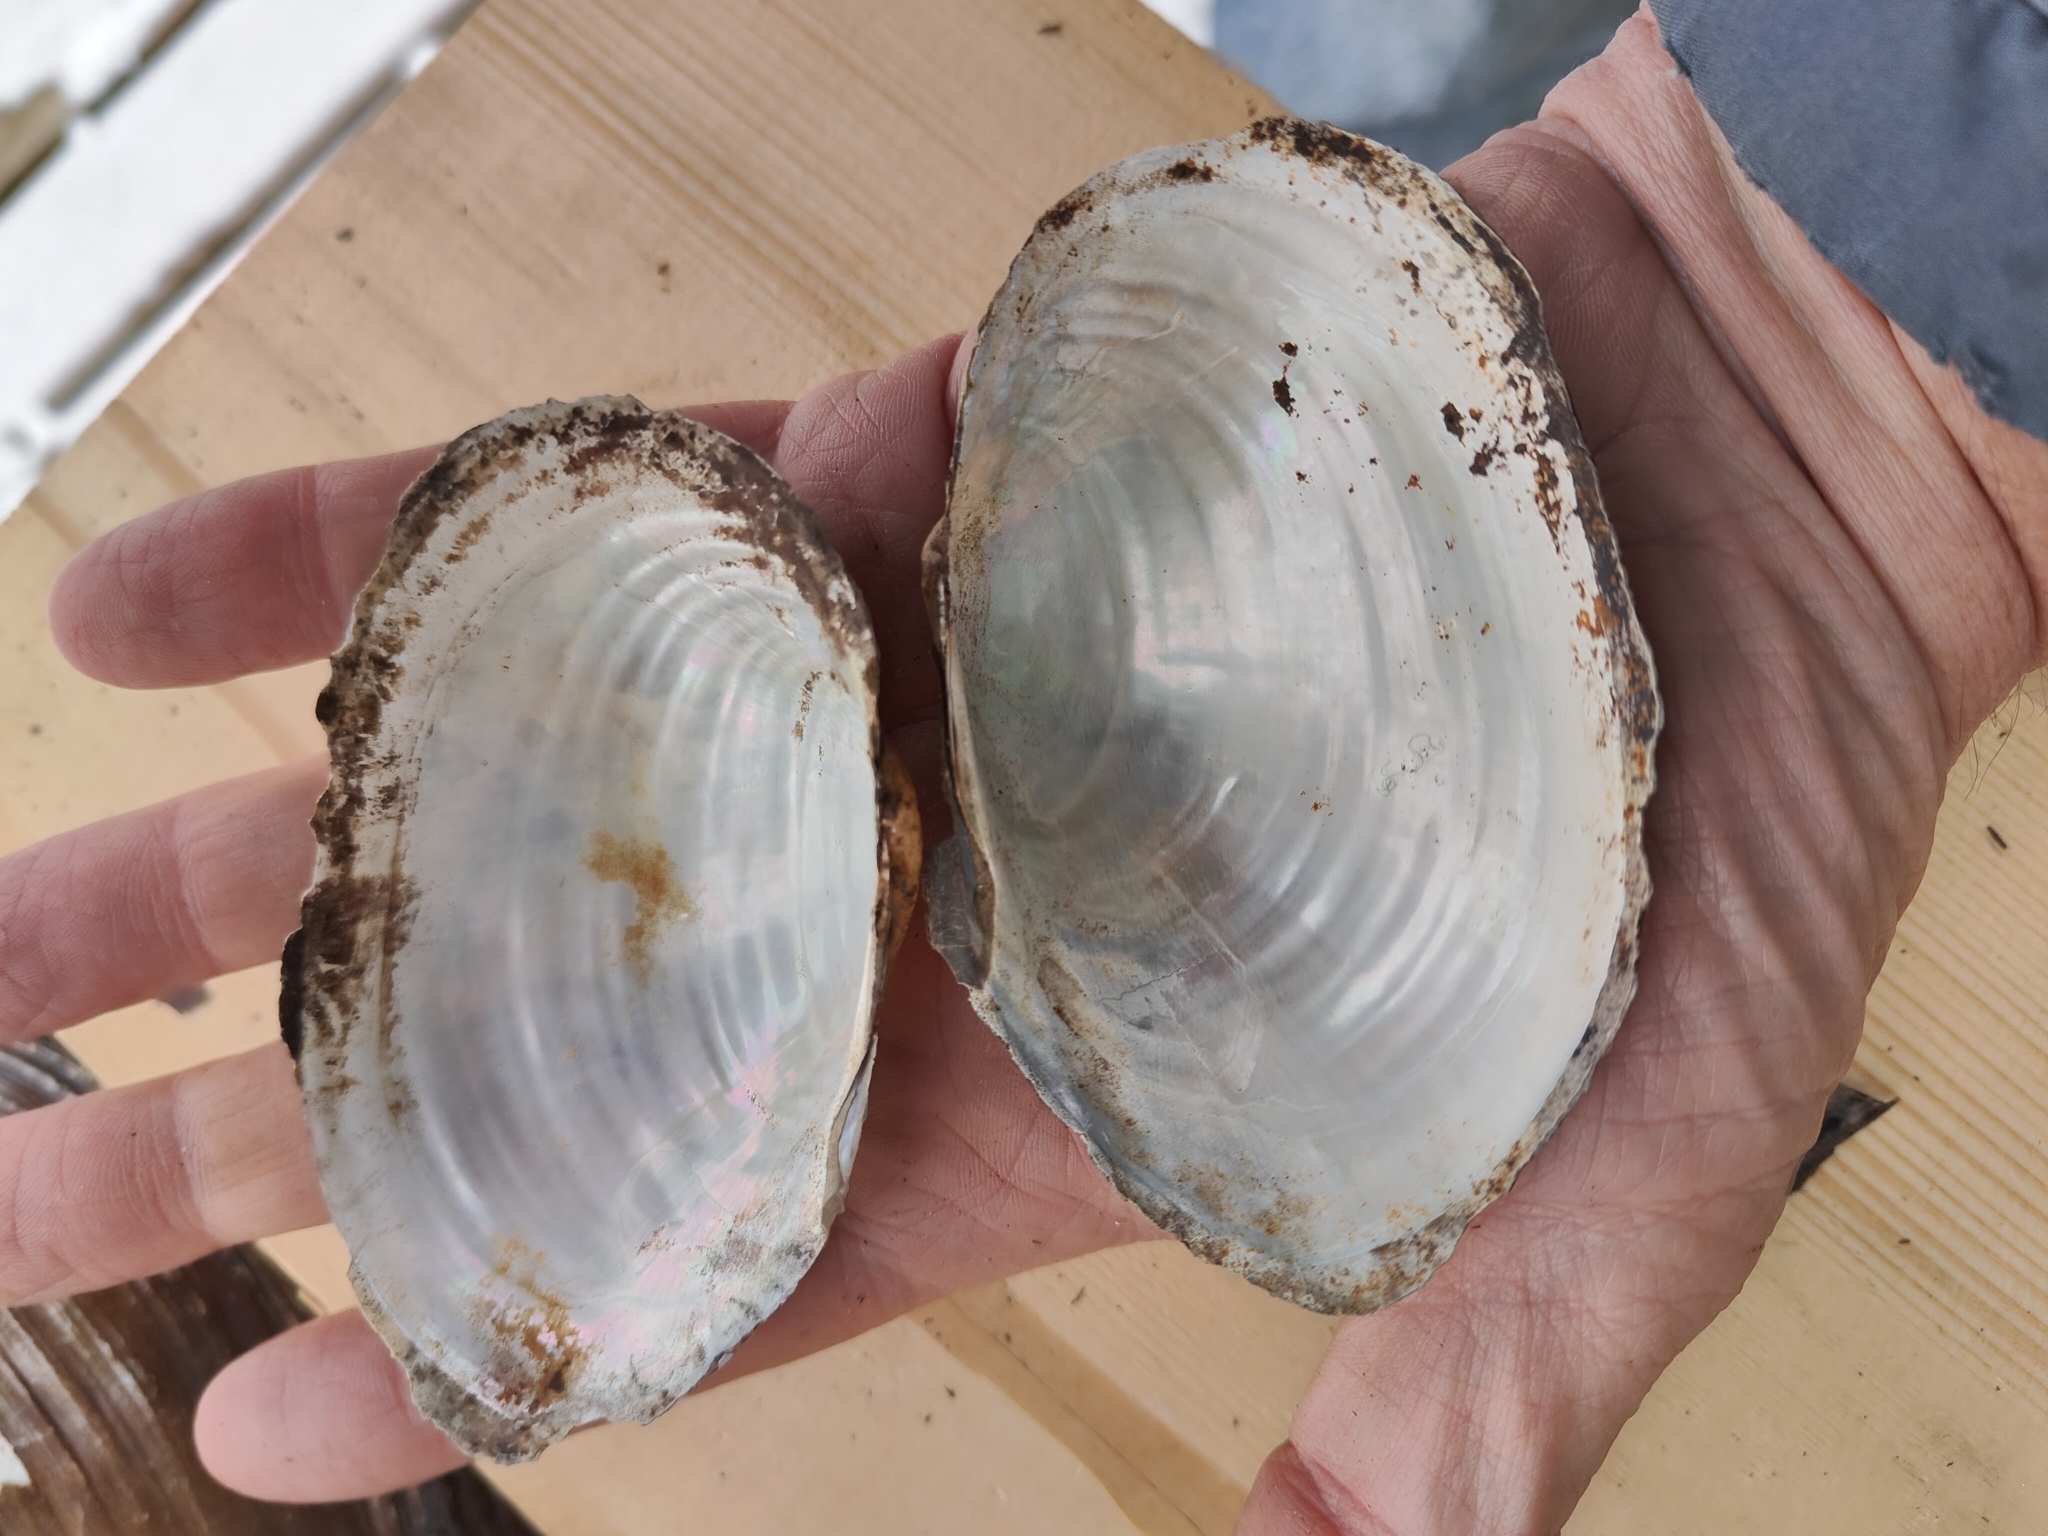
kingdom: Animalia
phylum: Mollusca
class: Bivalvia
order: Unionida
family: Unionidae
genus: Pyganodon
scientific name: Pyganodon grandis
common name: Giant floater
